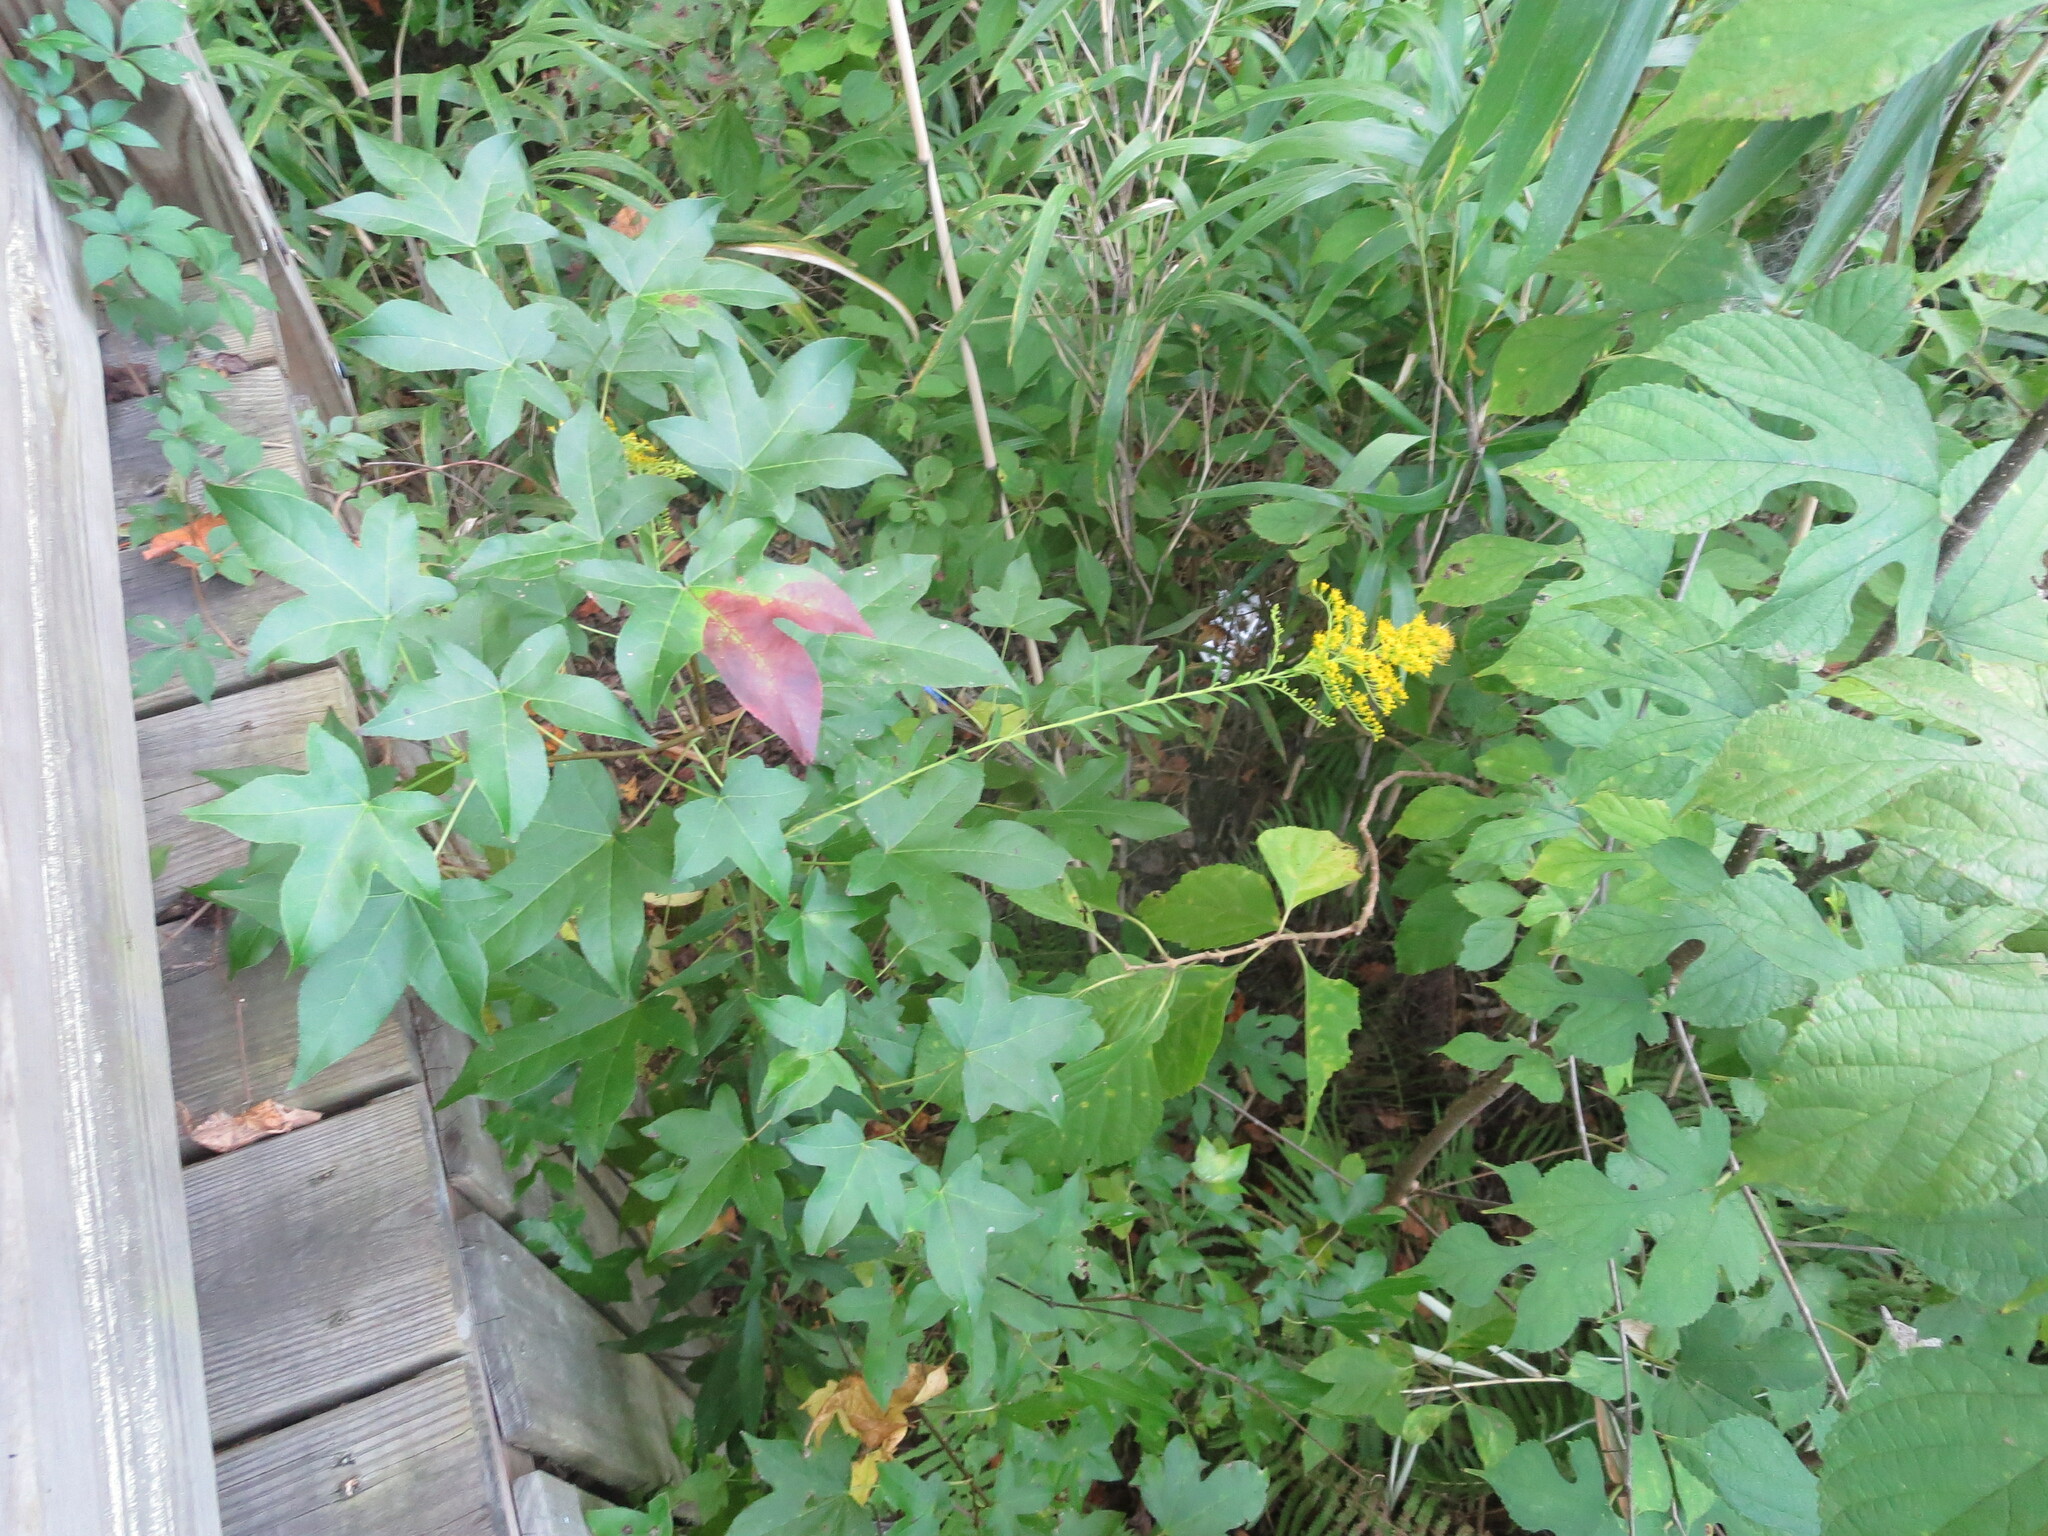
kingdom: Plantae
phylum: Tracheophyta
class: Magnoliopsida
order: Saxifragales
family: Altingiaceae
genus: Liquidambar
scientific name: Liquidambar styraciflua
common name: Sweet gum
